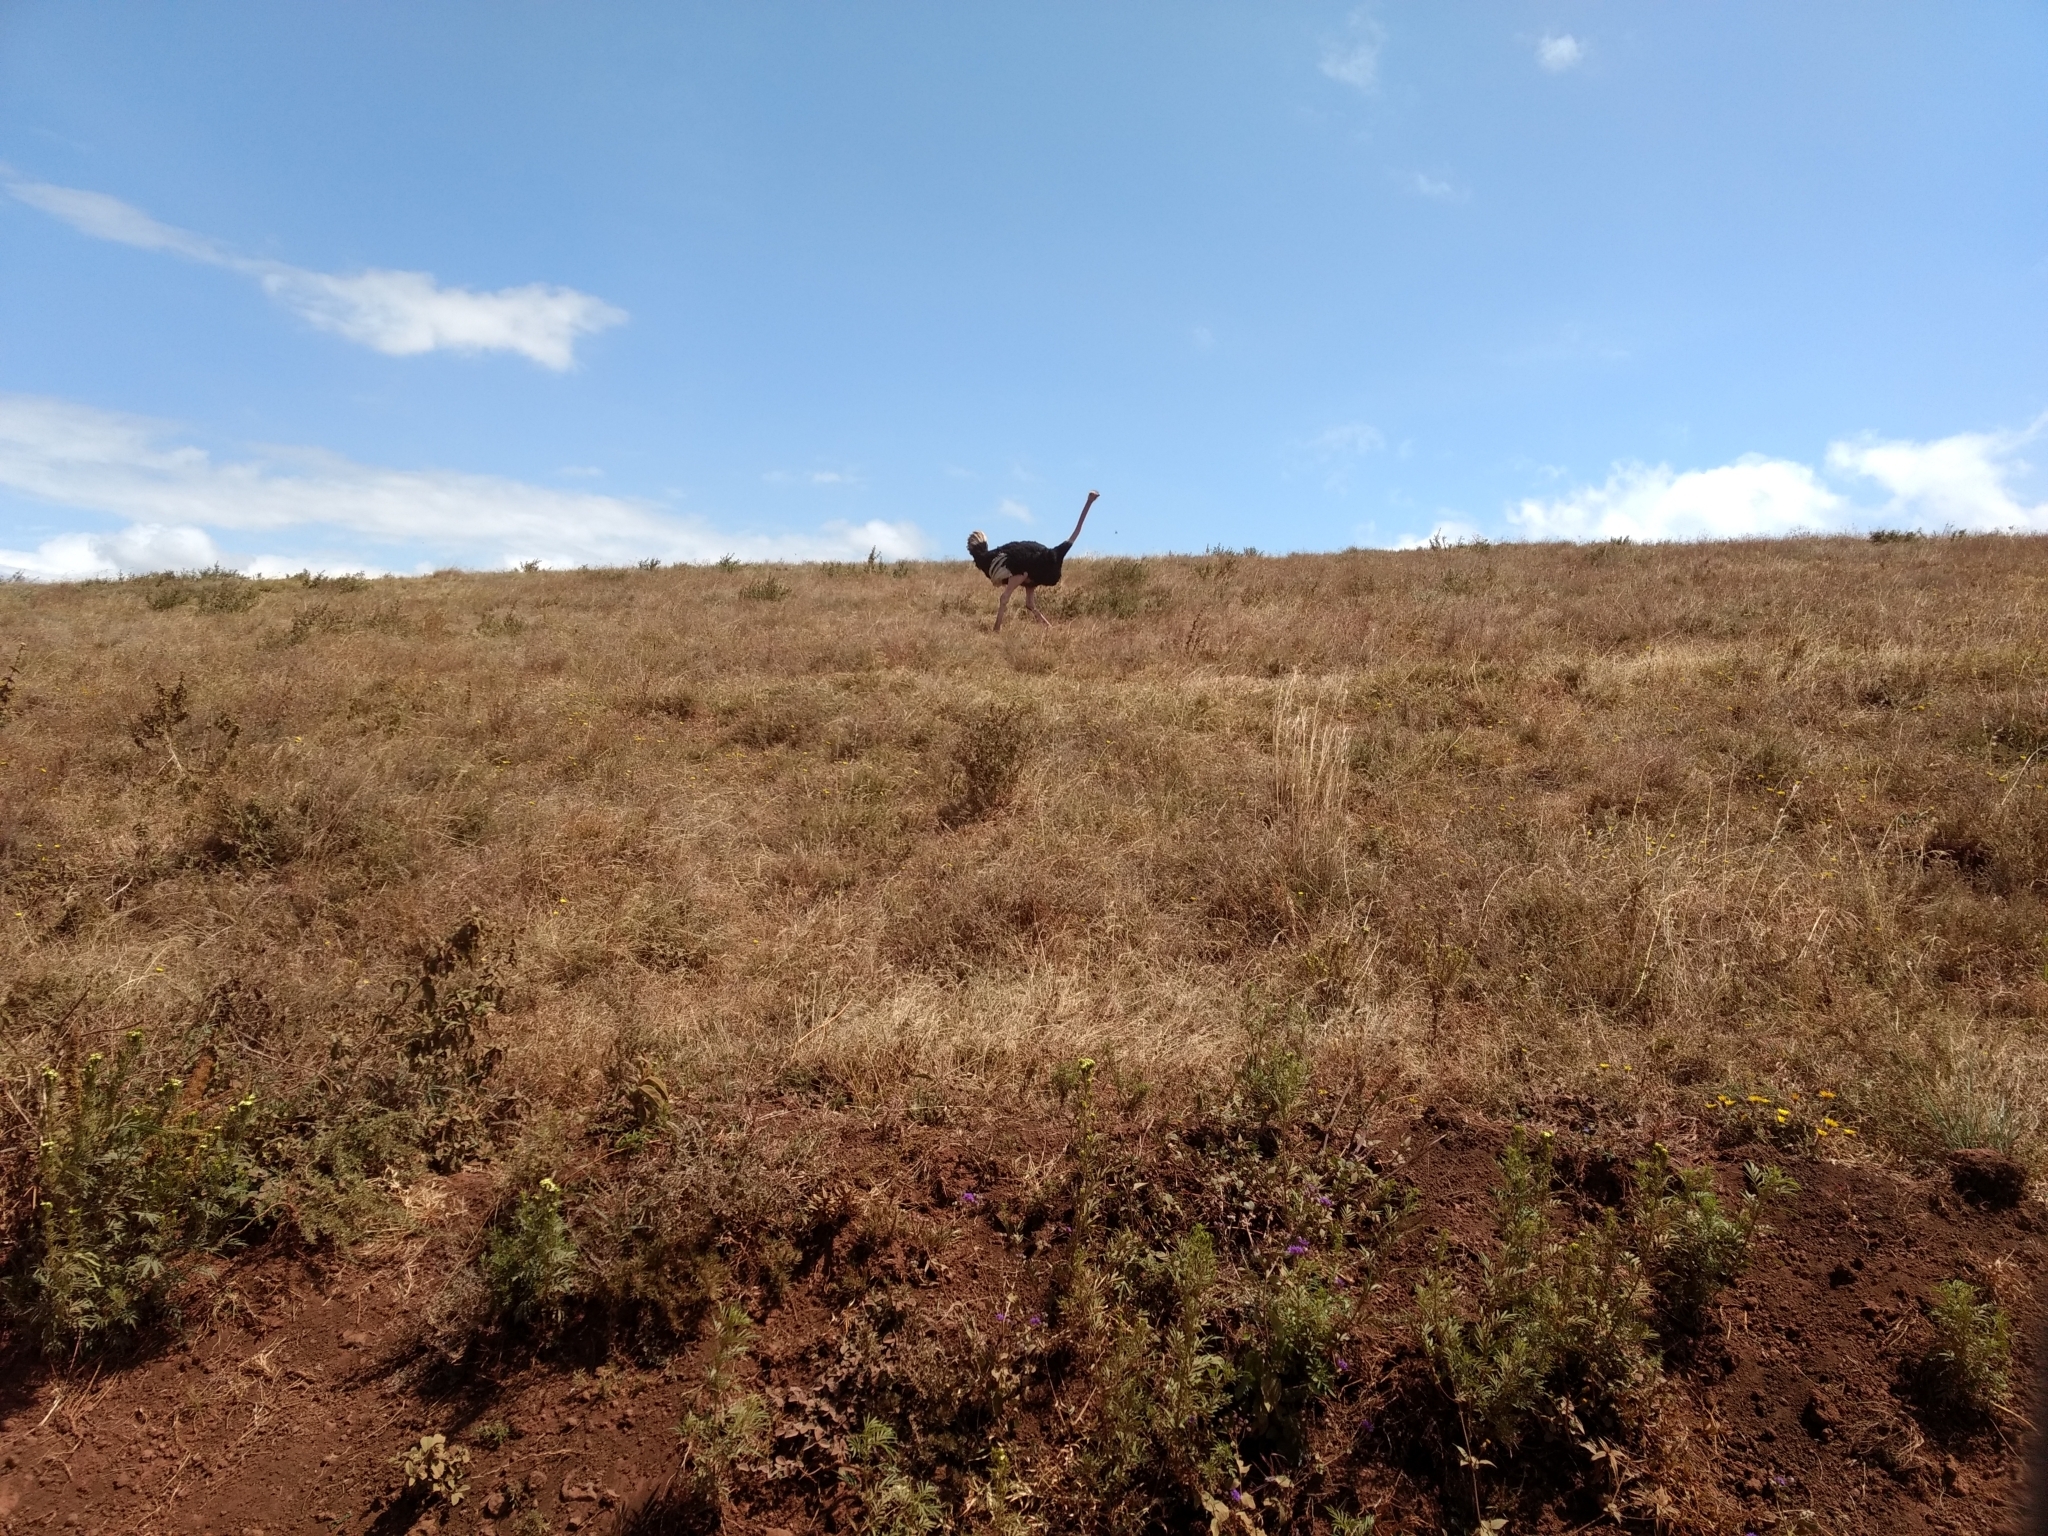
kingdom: Animalia
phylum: Chordata
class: Aves
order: Struthioniformes
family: Struthionidae
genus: Struthio
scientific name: Struthio camelus
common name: Common ostrich
